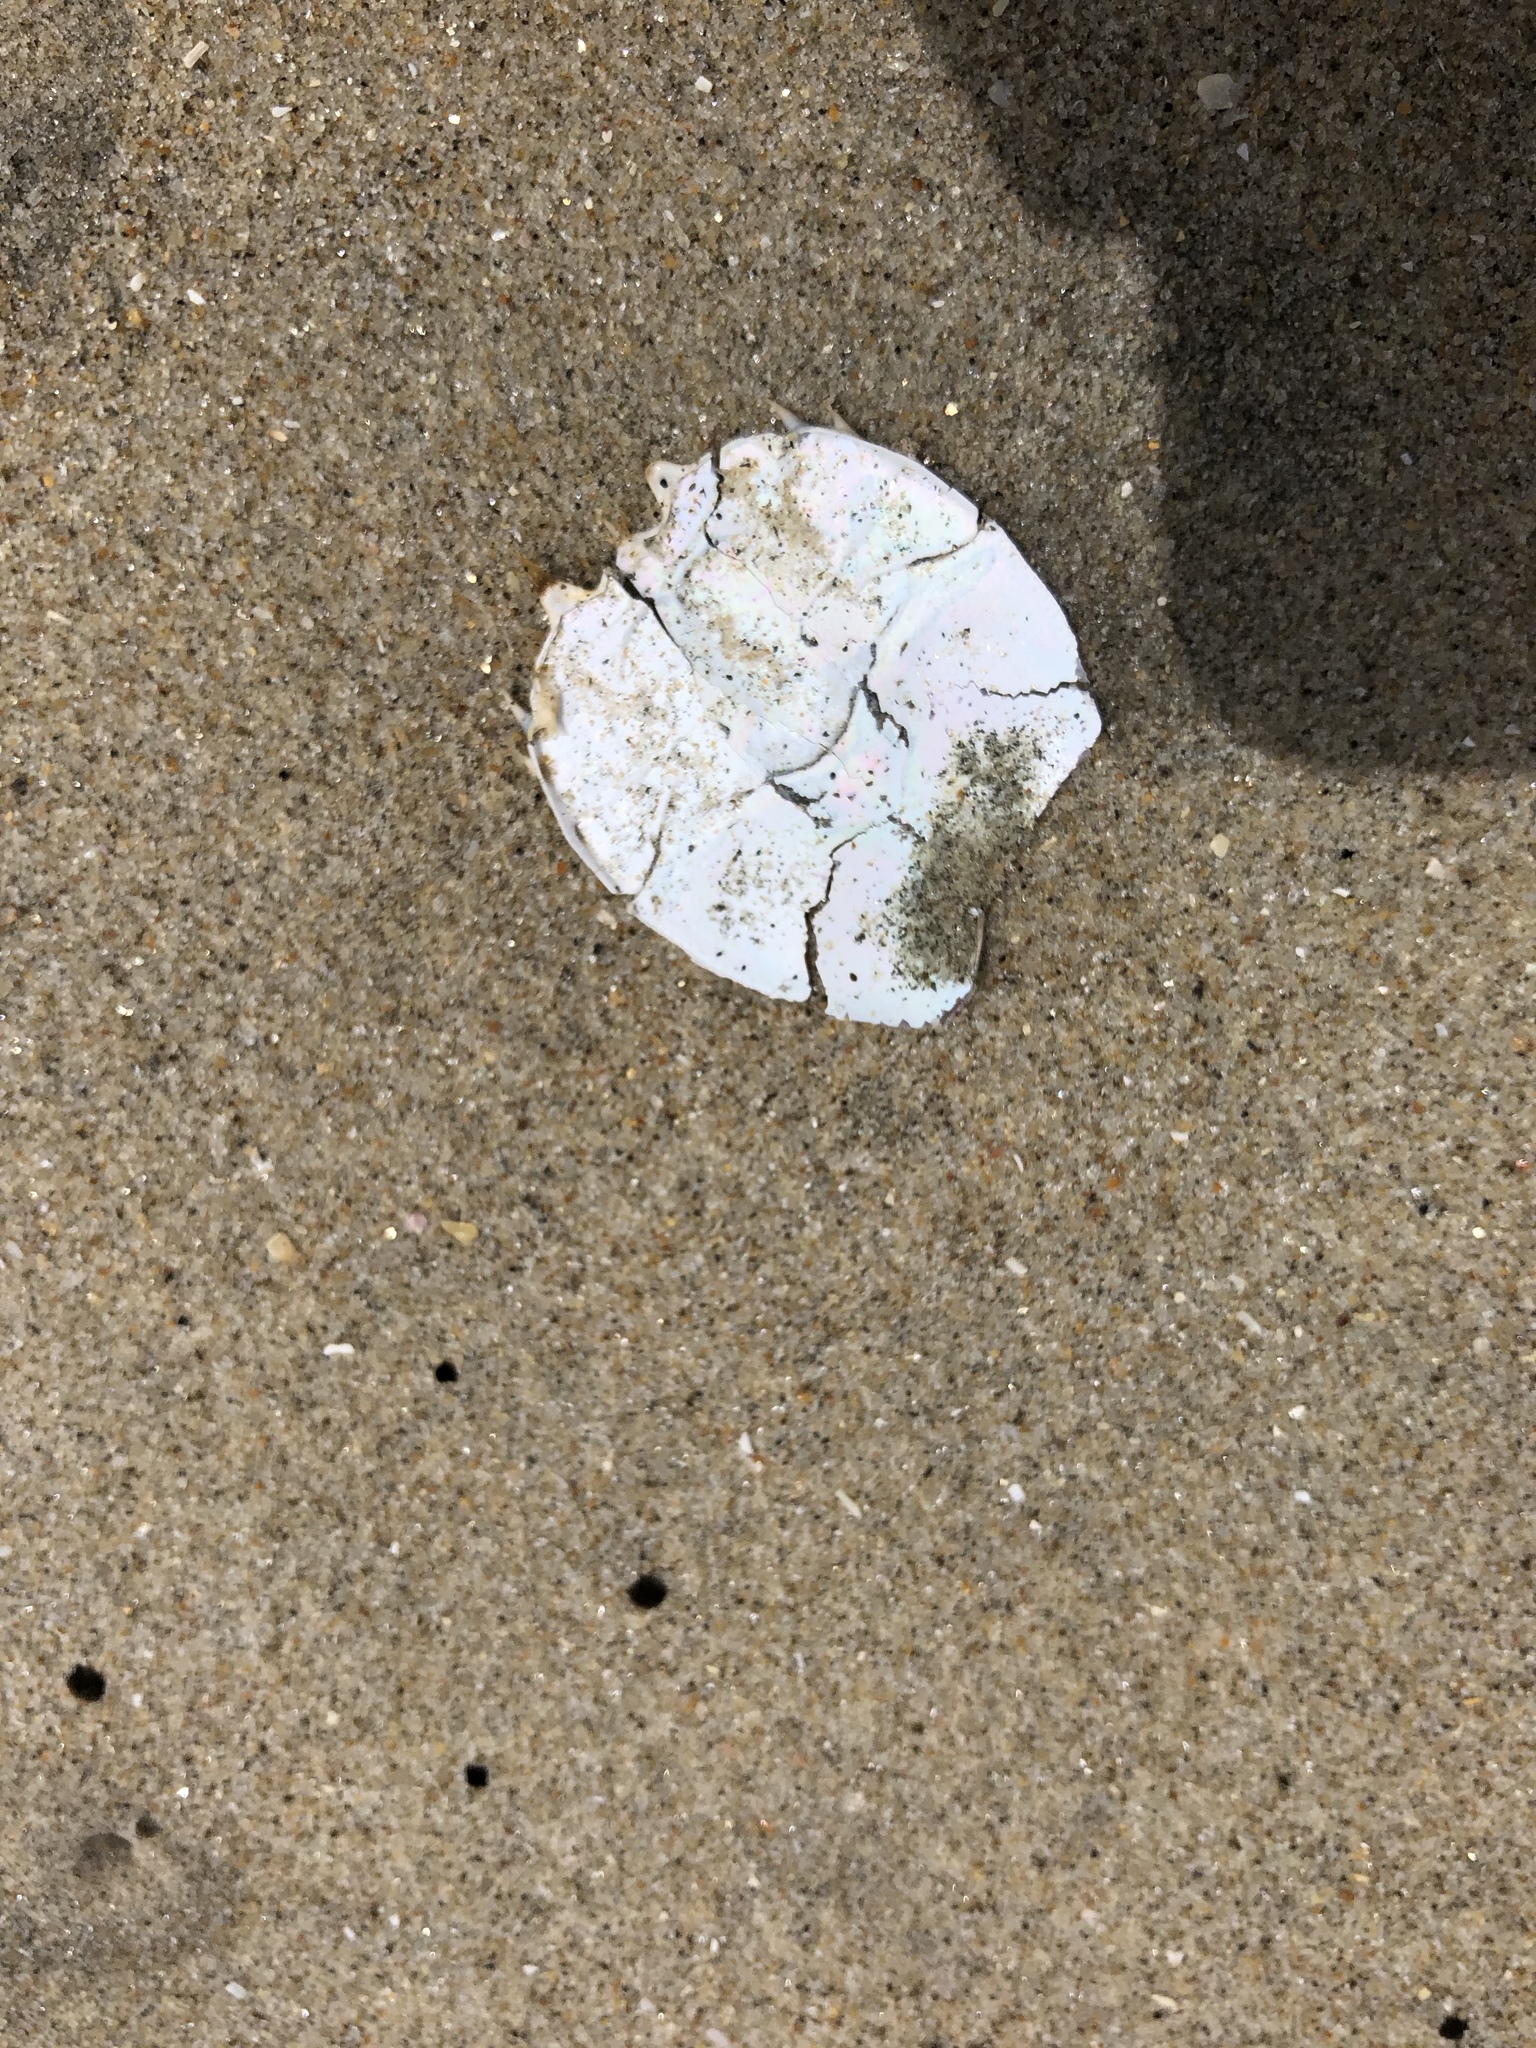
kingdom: Animalia
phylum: Arthropoda
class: Malacostraca
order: Decapoda
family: Blepharipodidae
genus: Blepharipoda
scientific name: Blepharipoda occidentalis
